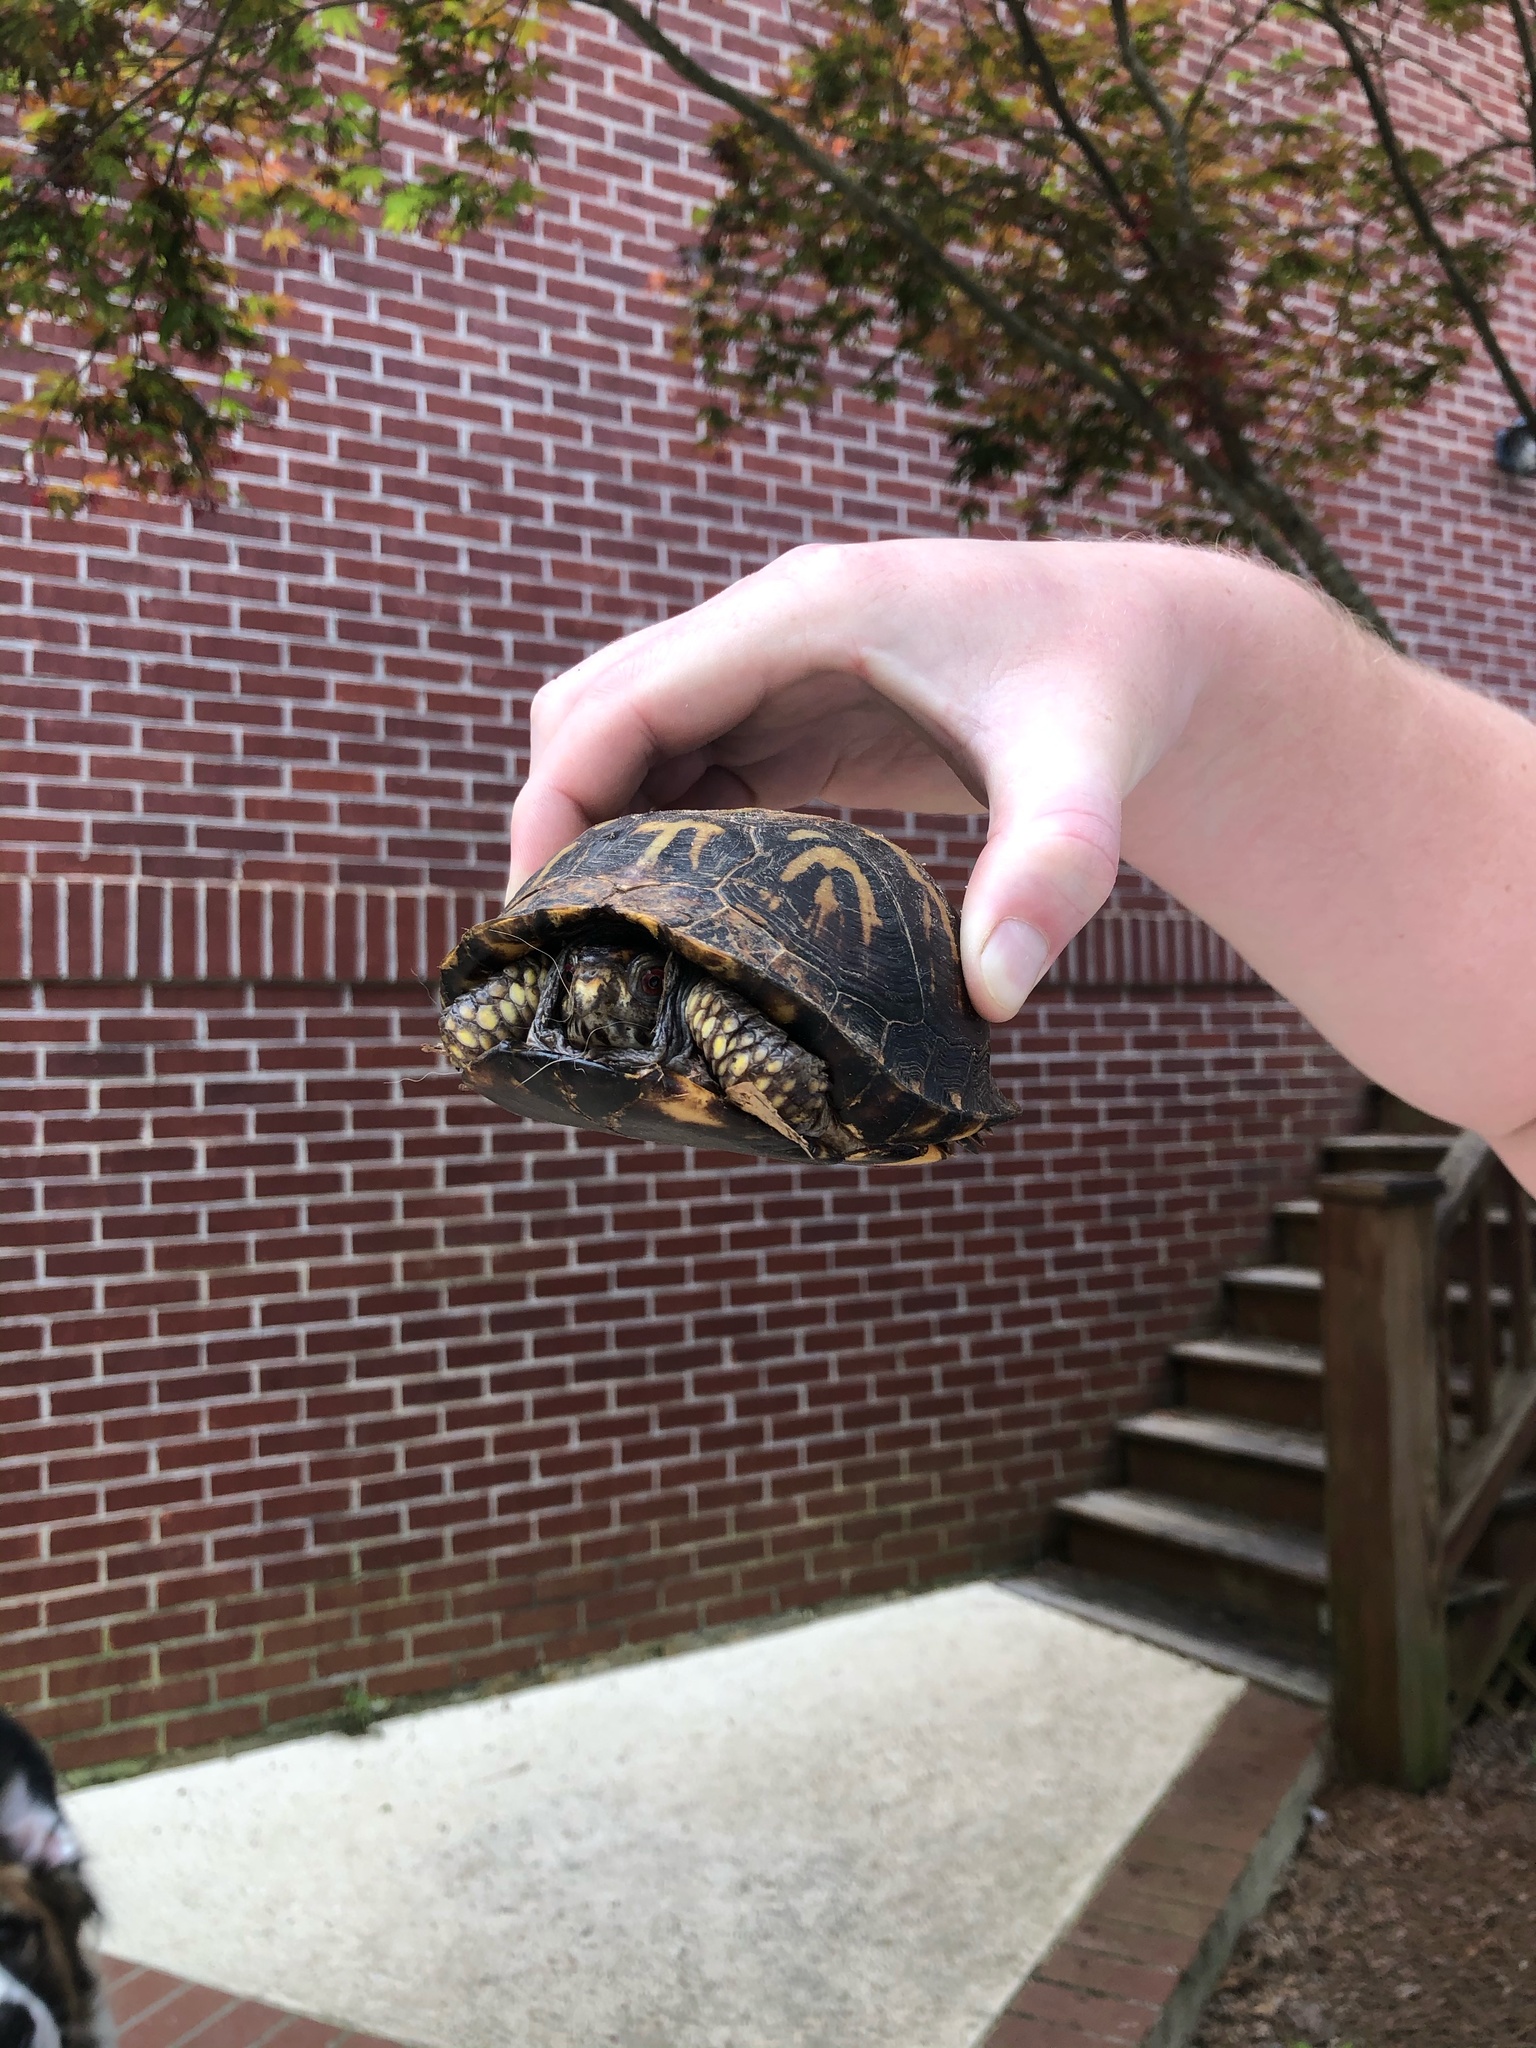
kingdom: Animalia
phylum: Chordata
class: Testudines
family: Emydidae
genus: Terrapene
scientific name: Terrapene carolina
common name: Common box turtle
